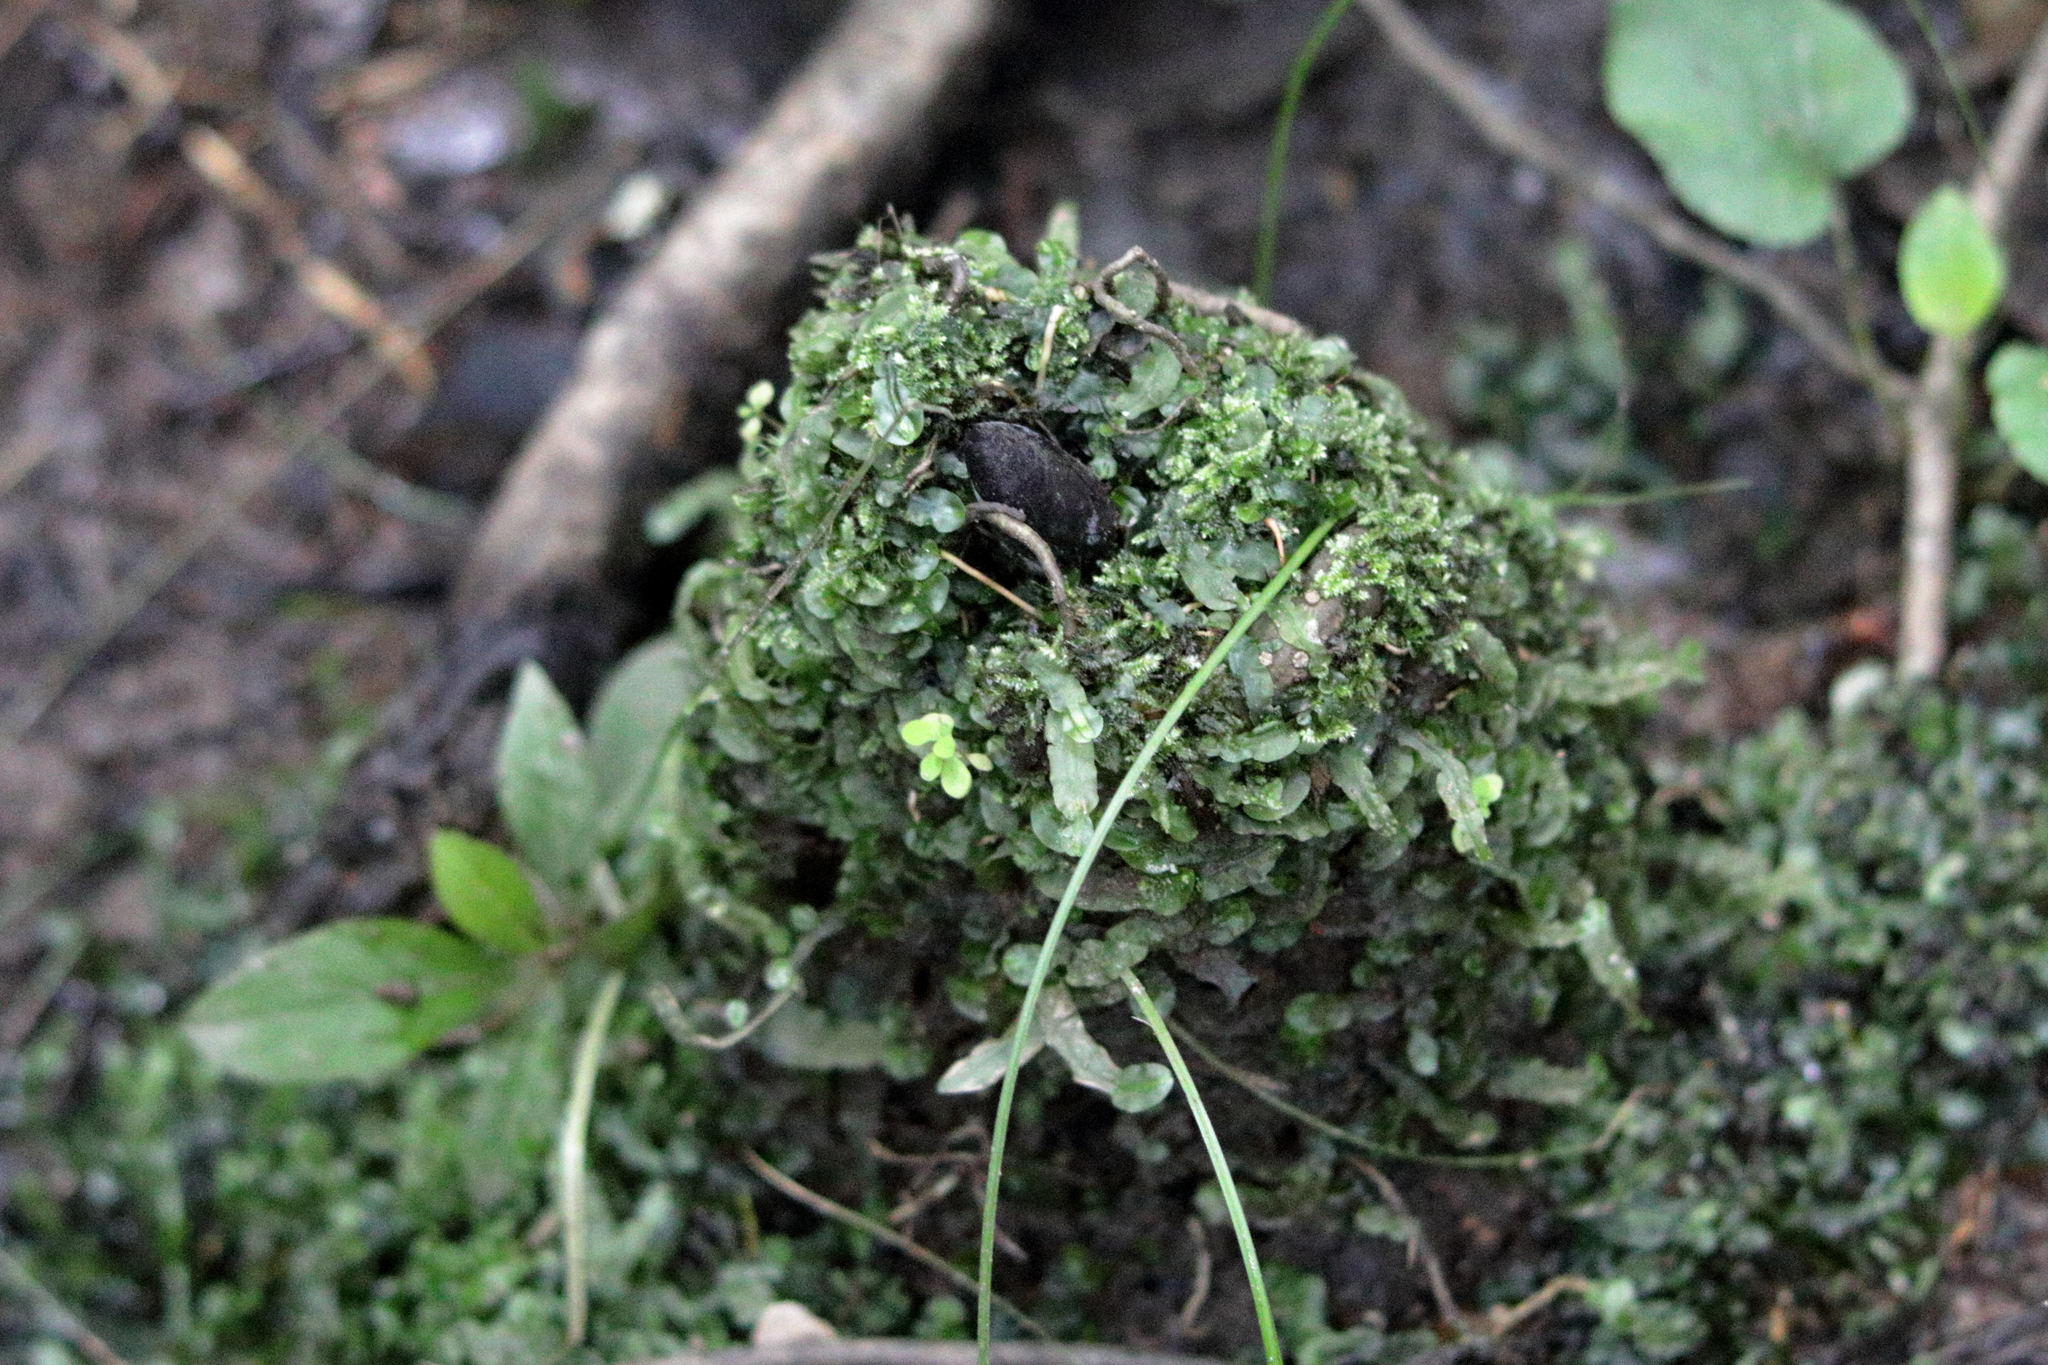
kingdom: Plantae
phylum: Marchantiophyta
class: Jungermanniopsida
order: Pallaviciniales
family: Pallaviciniaceae
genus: Pallavicinia
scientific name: Pallavicinia lyellii
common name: Veilwort
